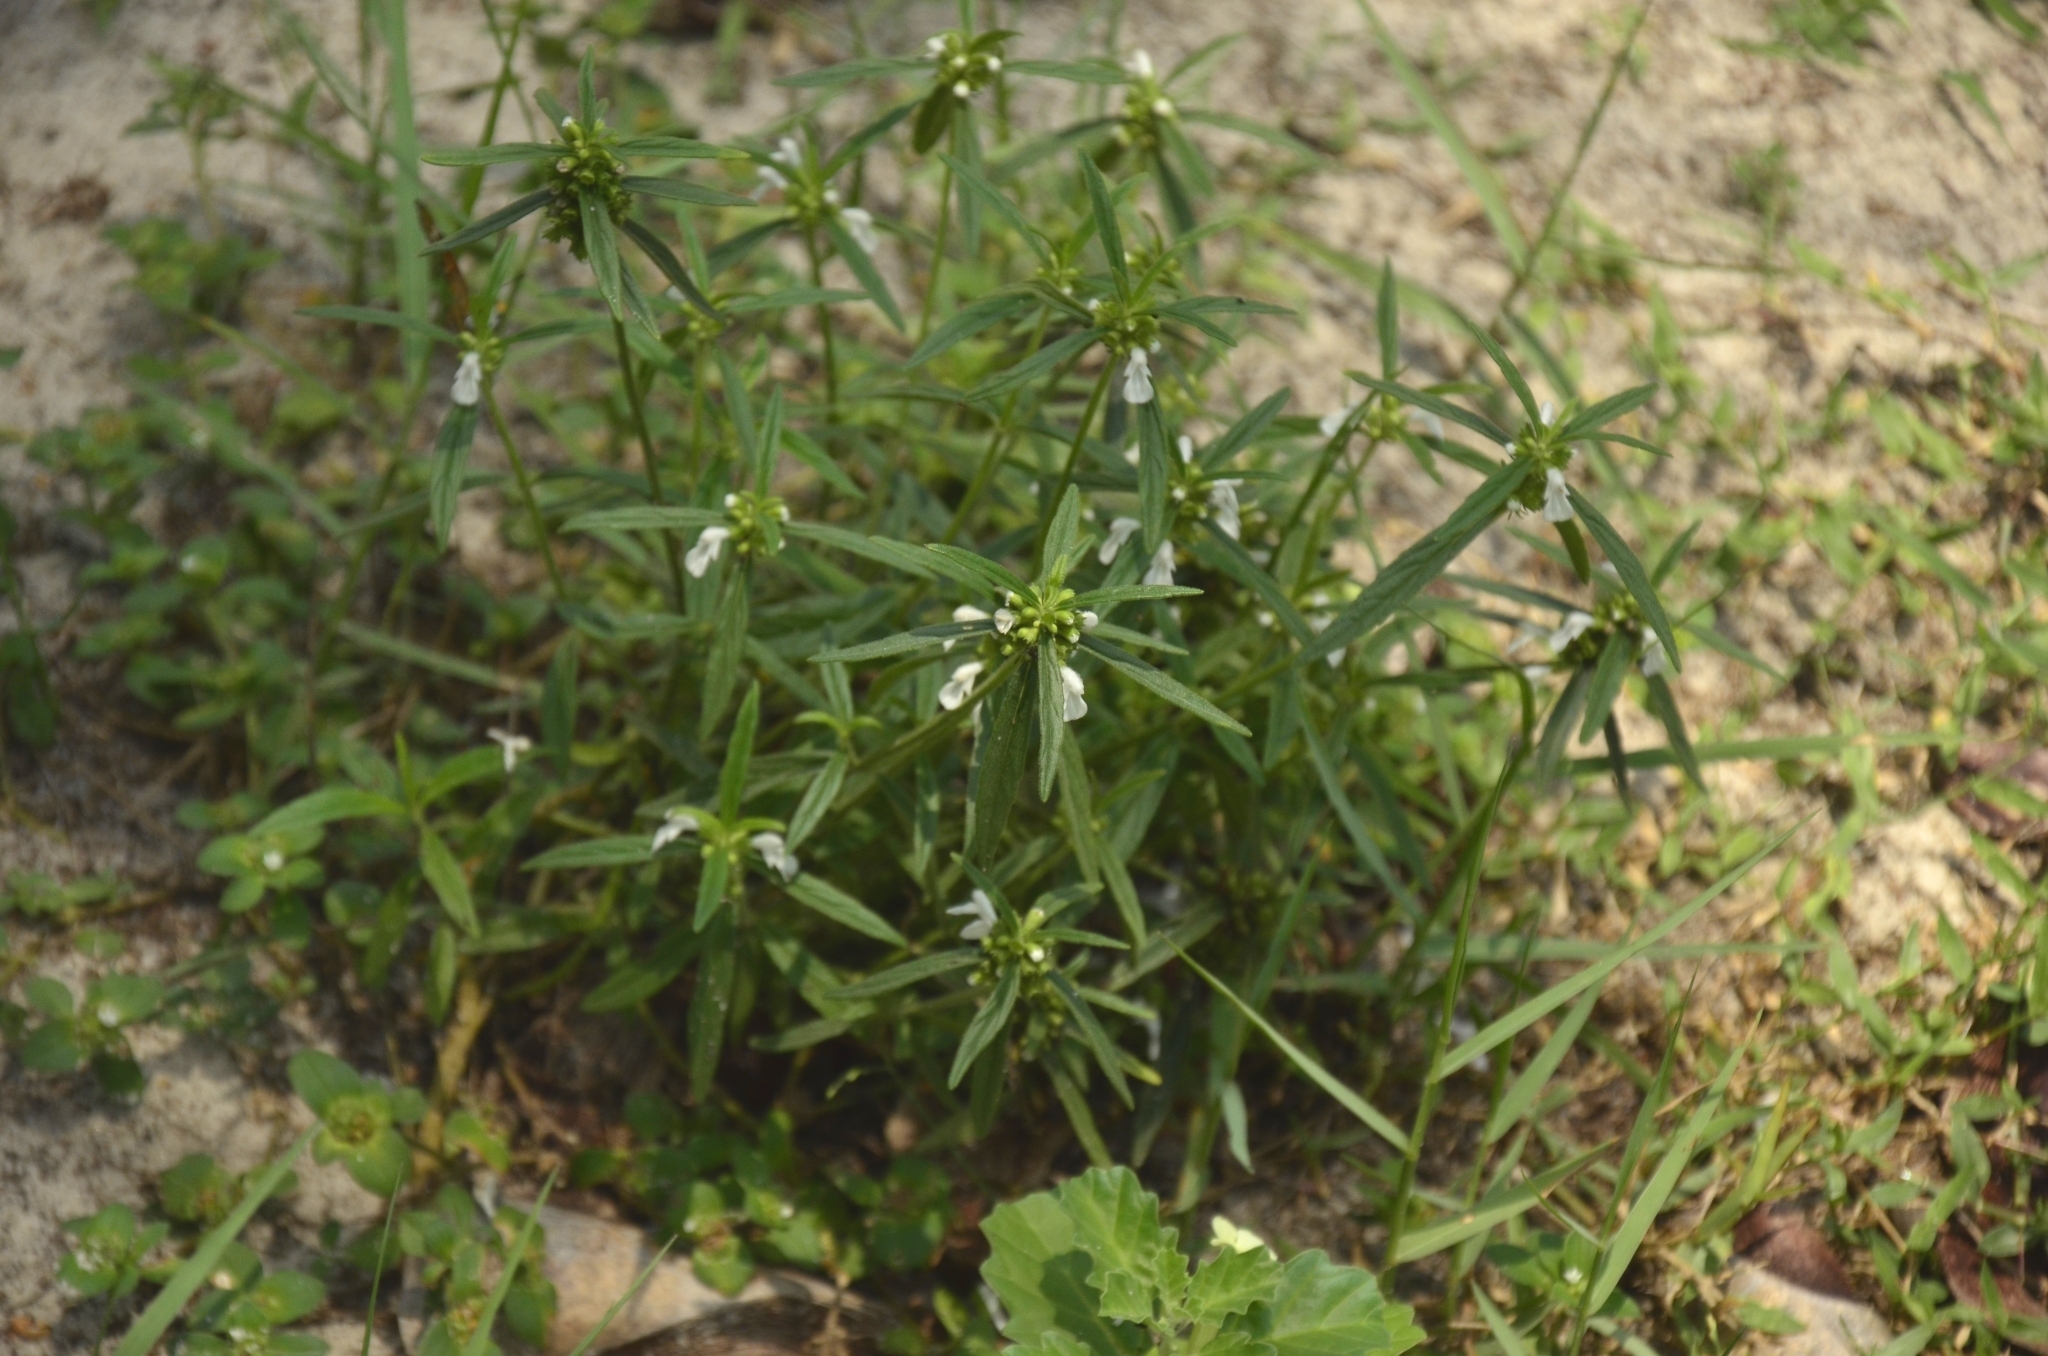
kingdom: Plantae
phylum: Tracheophyta
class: Magnoliopsida
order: Lamiales
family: Lamiaceae
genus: Leucas
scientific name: Leucas aspera
